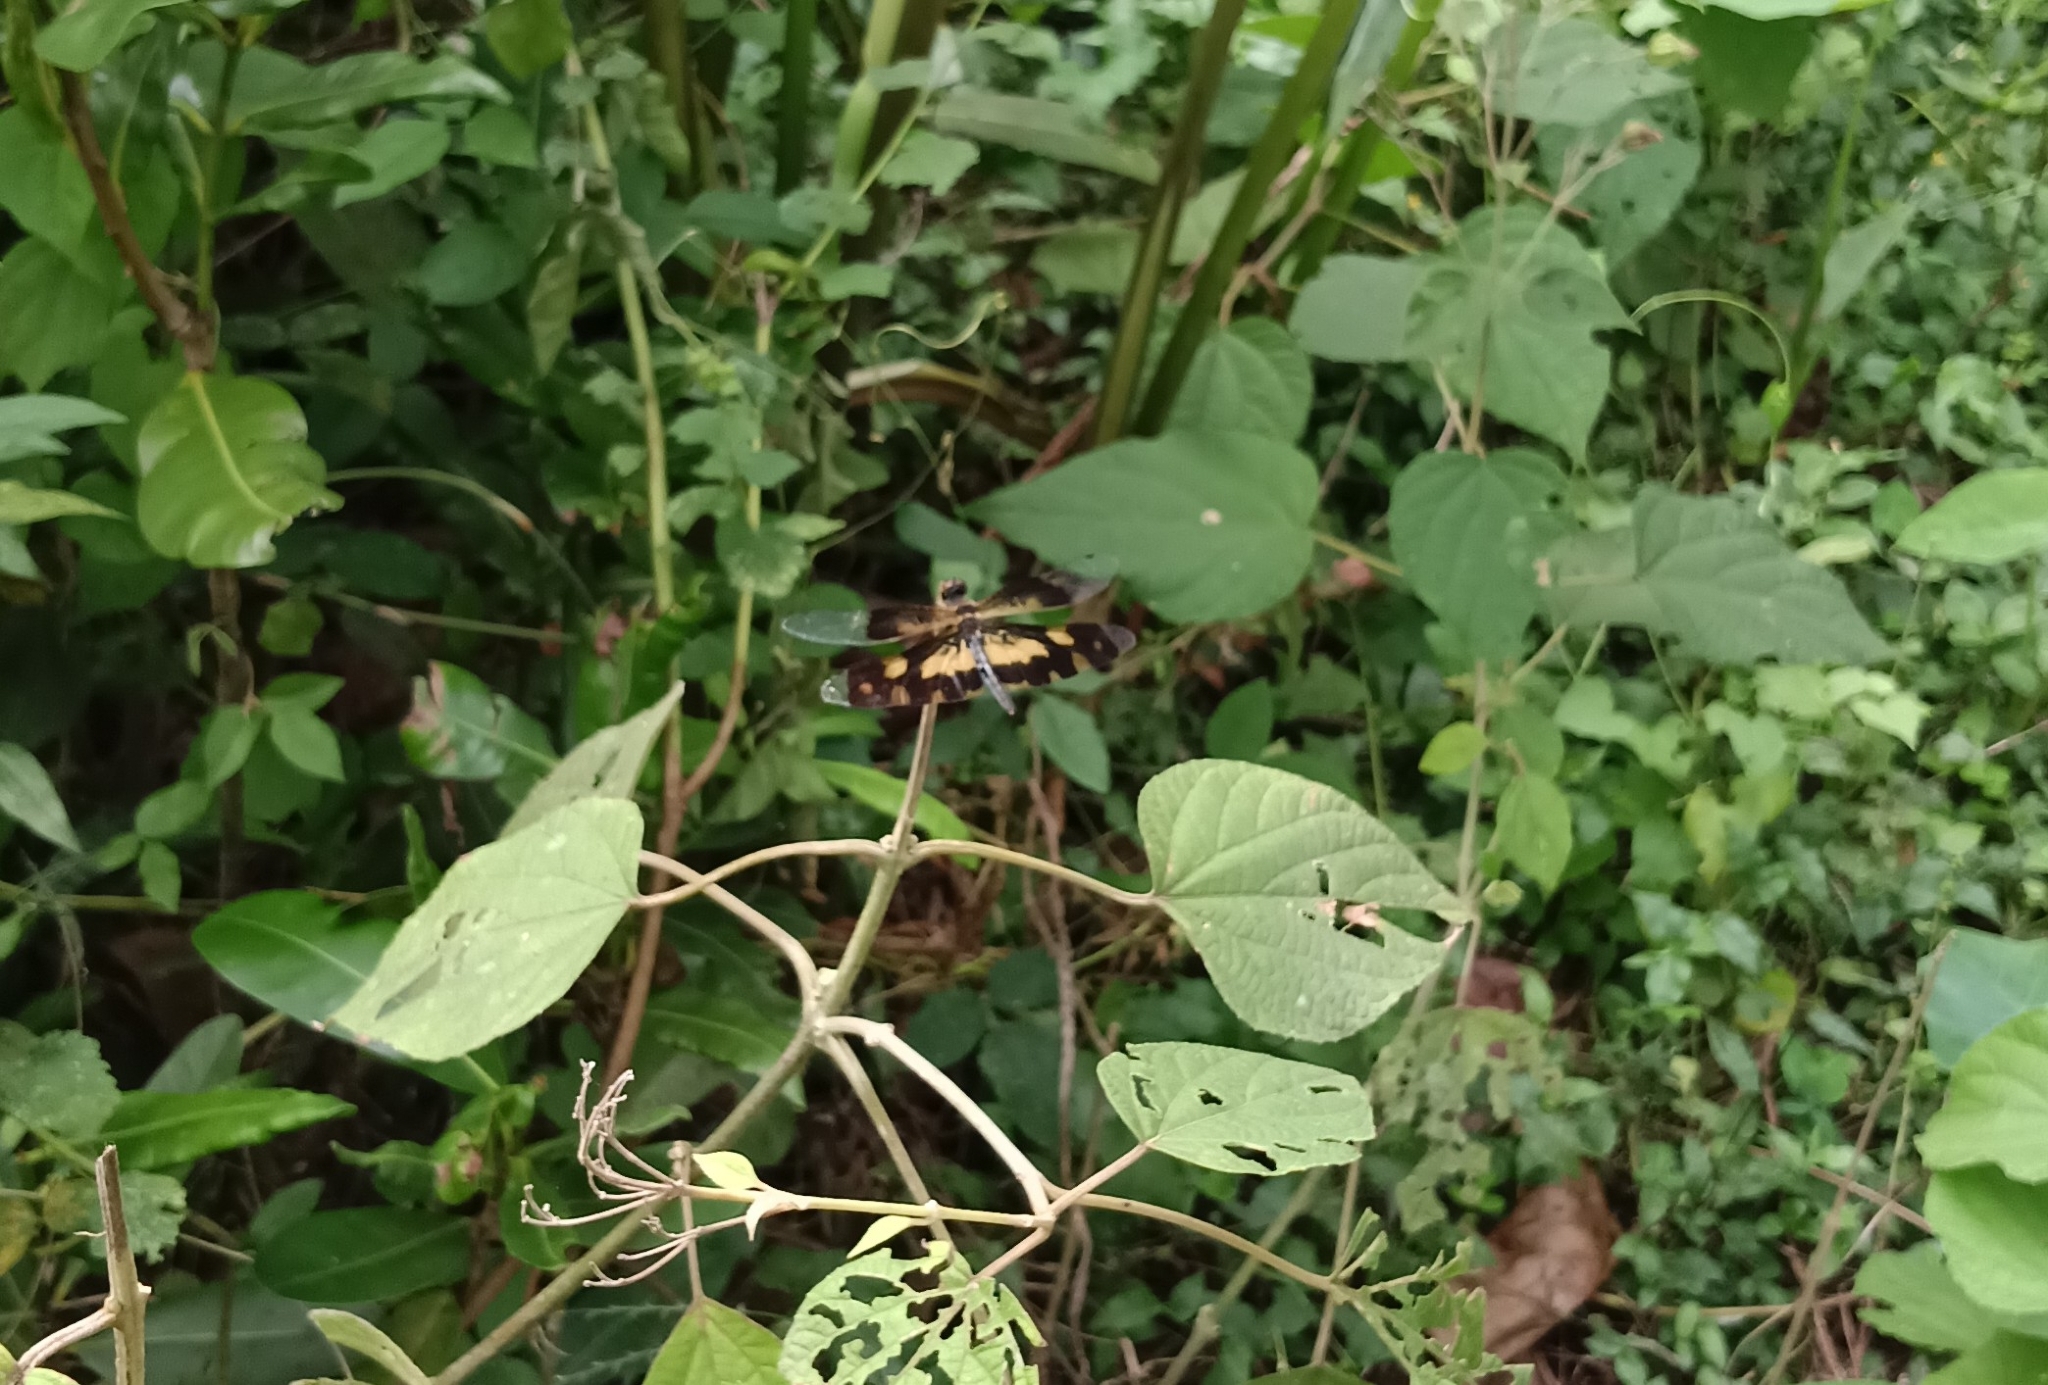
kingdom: Animalia
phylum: Arthropoda
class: Insecta
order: Odonata
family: Libellulidae
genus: Rhyothemis
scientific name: Rhyothemis variegata
